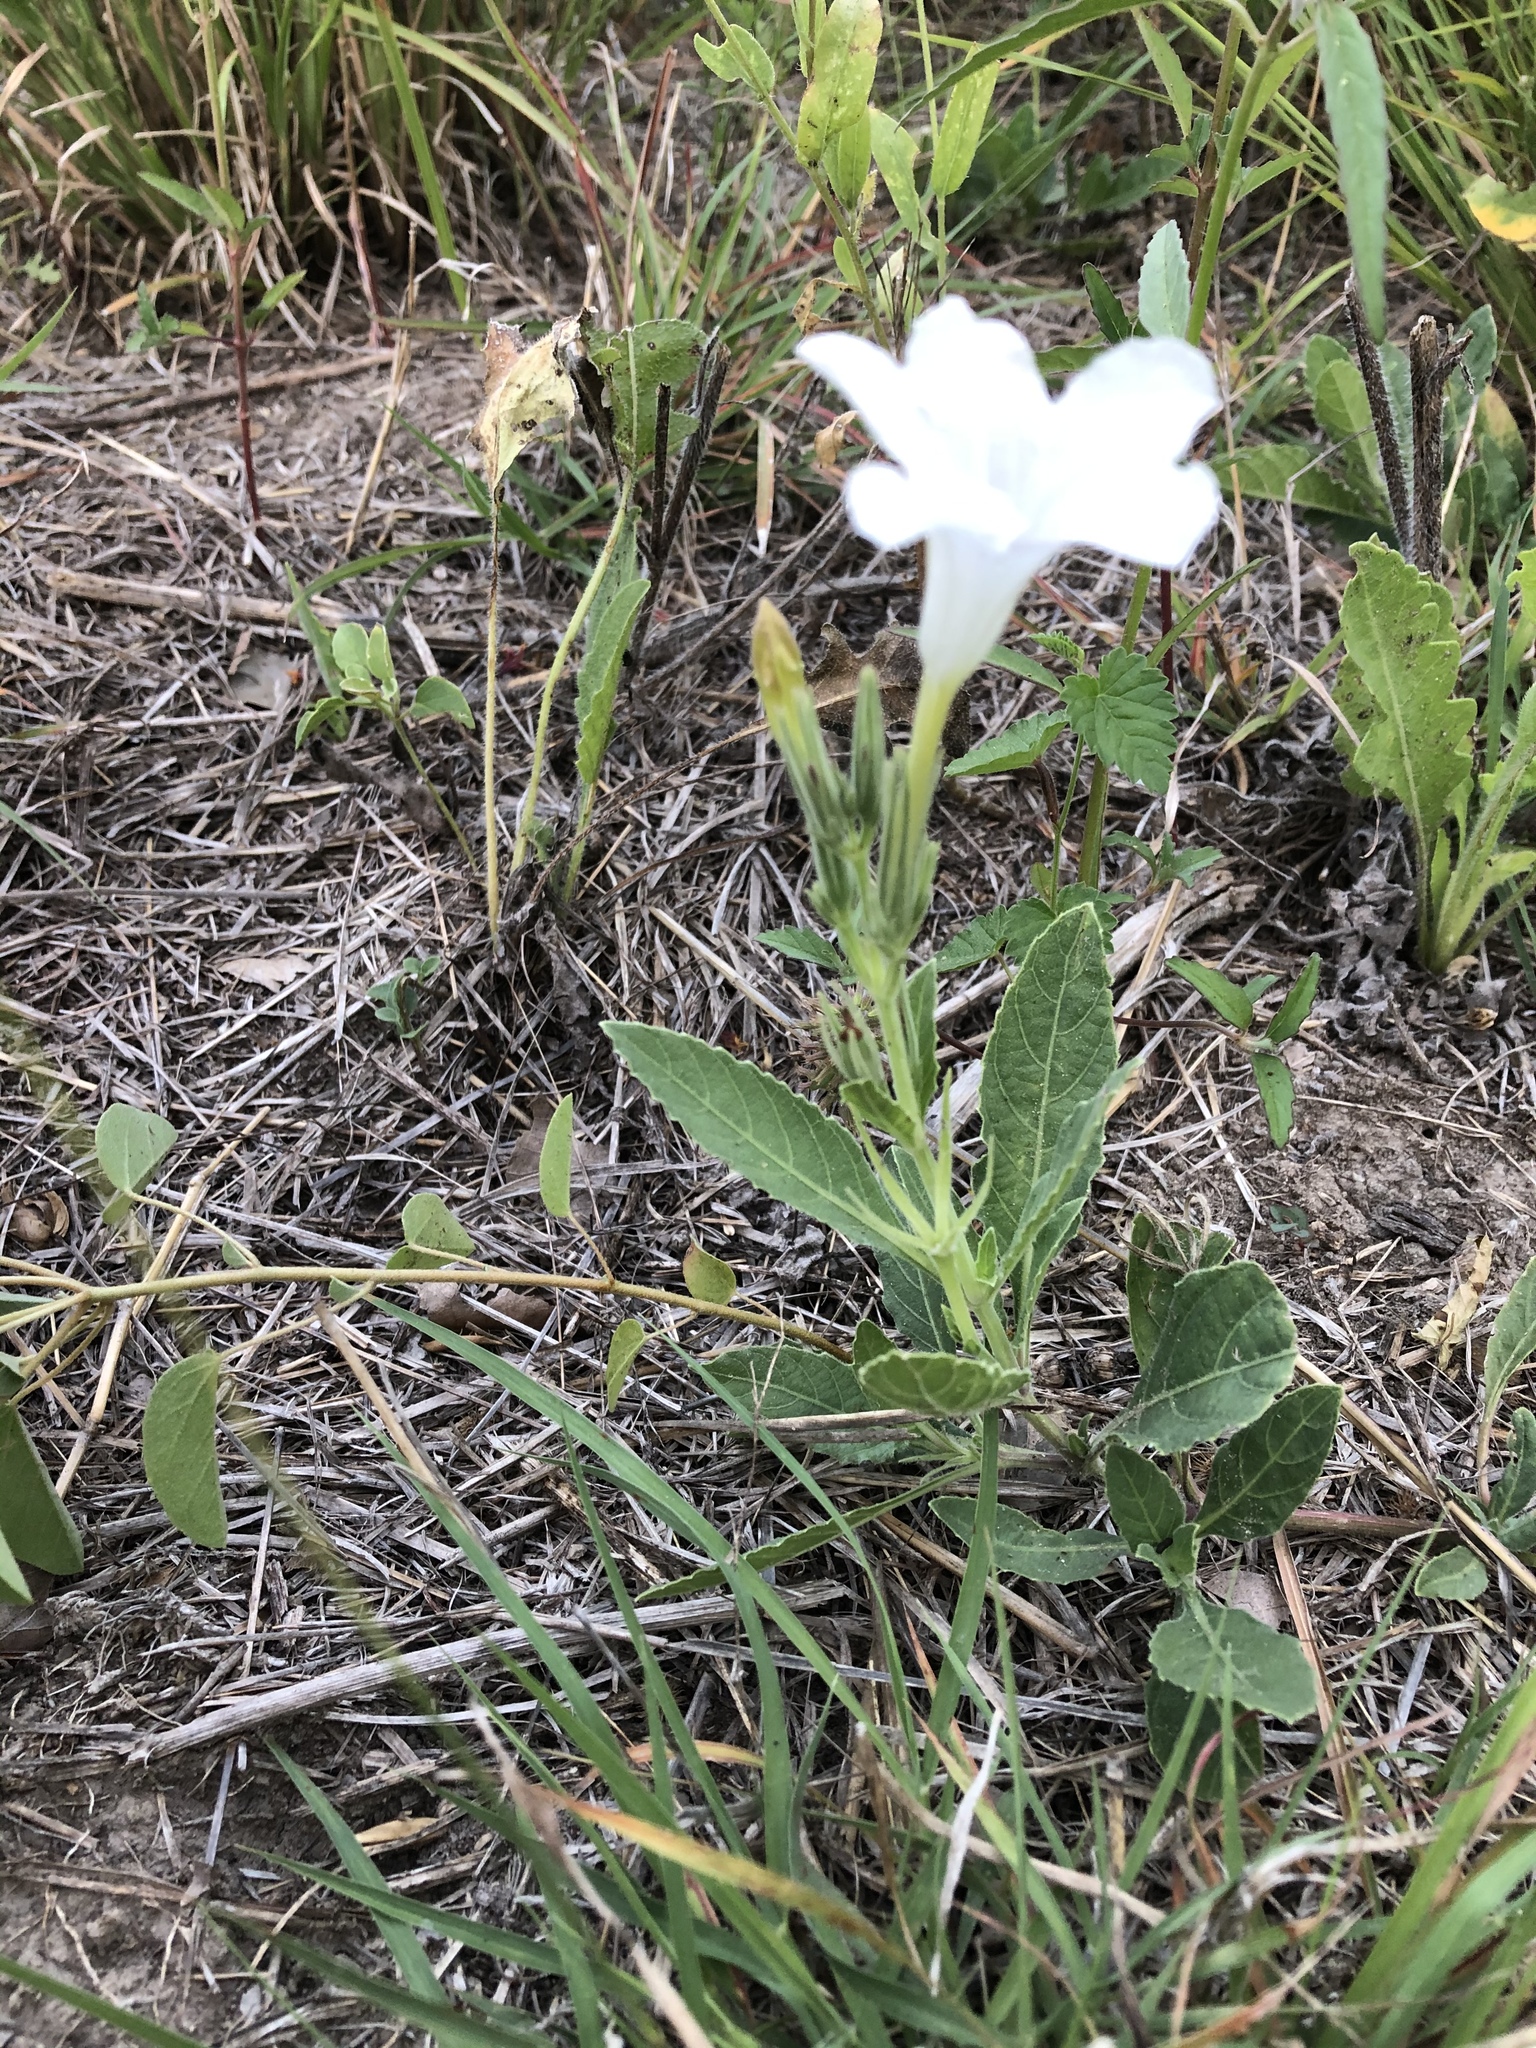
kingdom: Plantae
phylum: Tracheophyta
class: Magnoliopsida
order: Lamiales
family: Acanthaceae
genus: Ruellia
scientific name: Ruellia metziae
